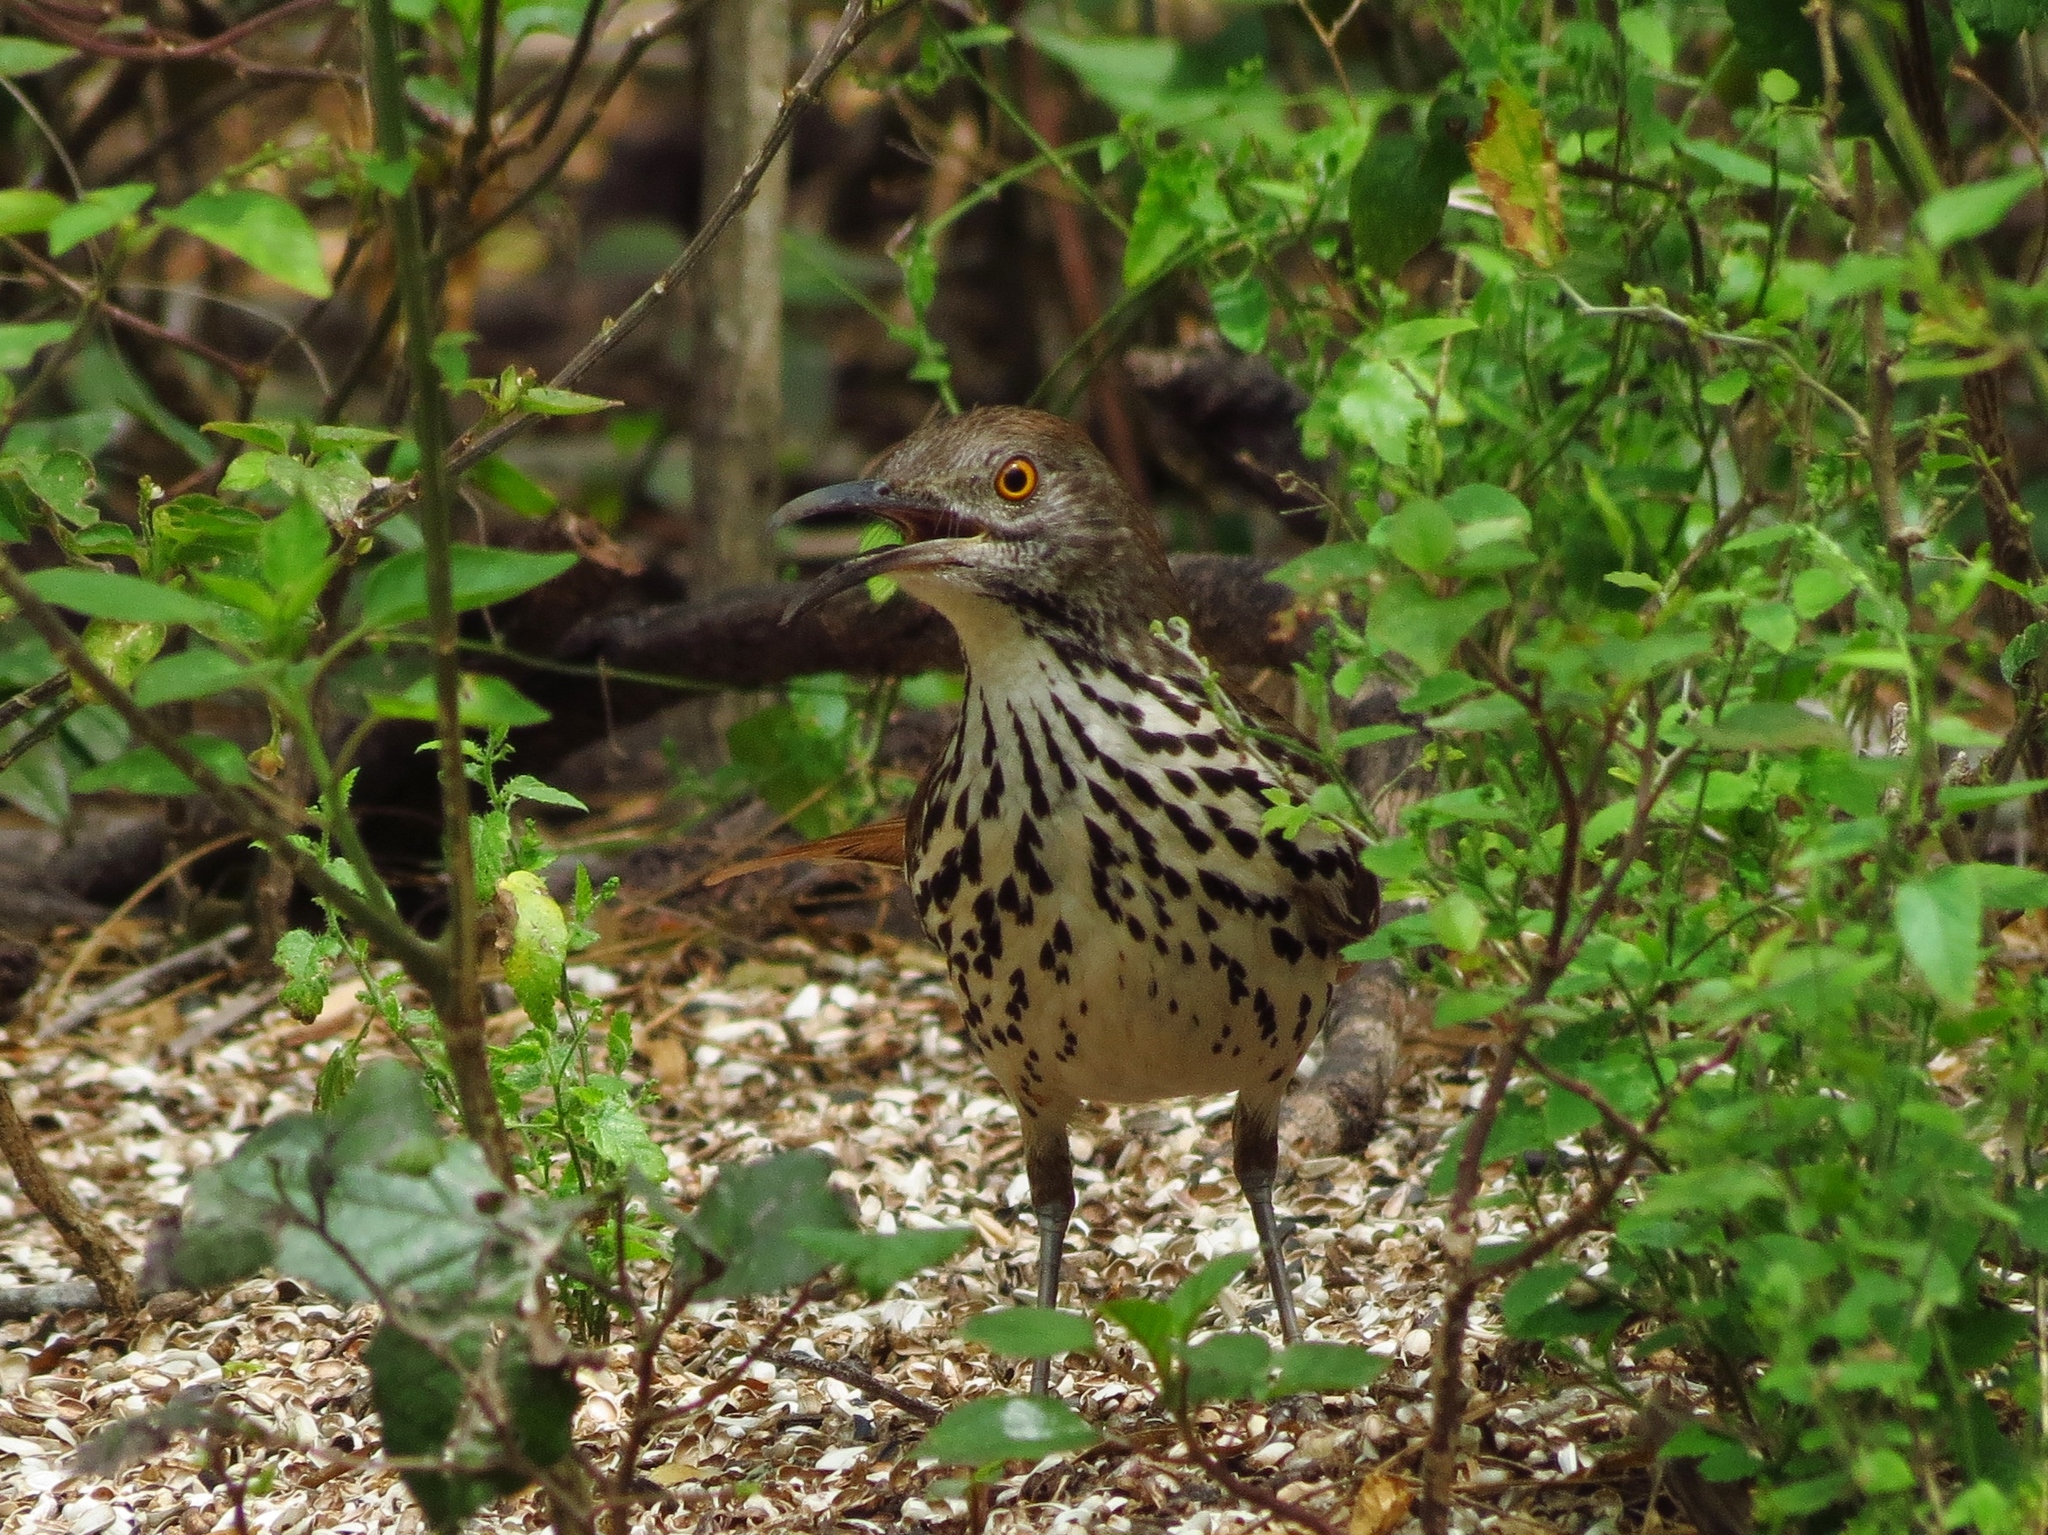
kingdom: Animalia
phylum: Chordata
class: Aves
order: Passeriformes
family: Mimidae
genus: Toxostoma
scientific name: Toxostoma longirostre
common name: Long-billed thrasher
